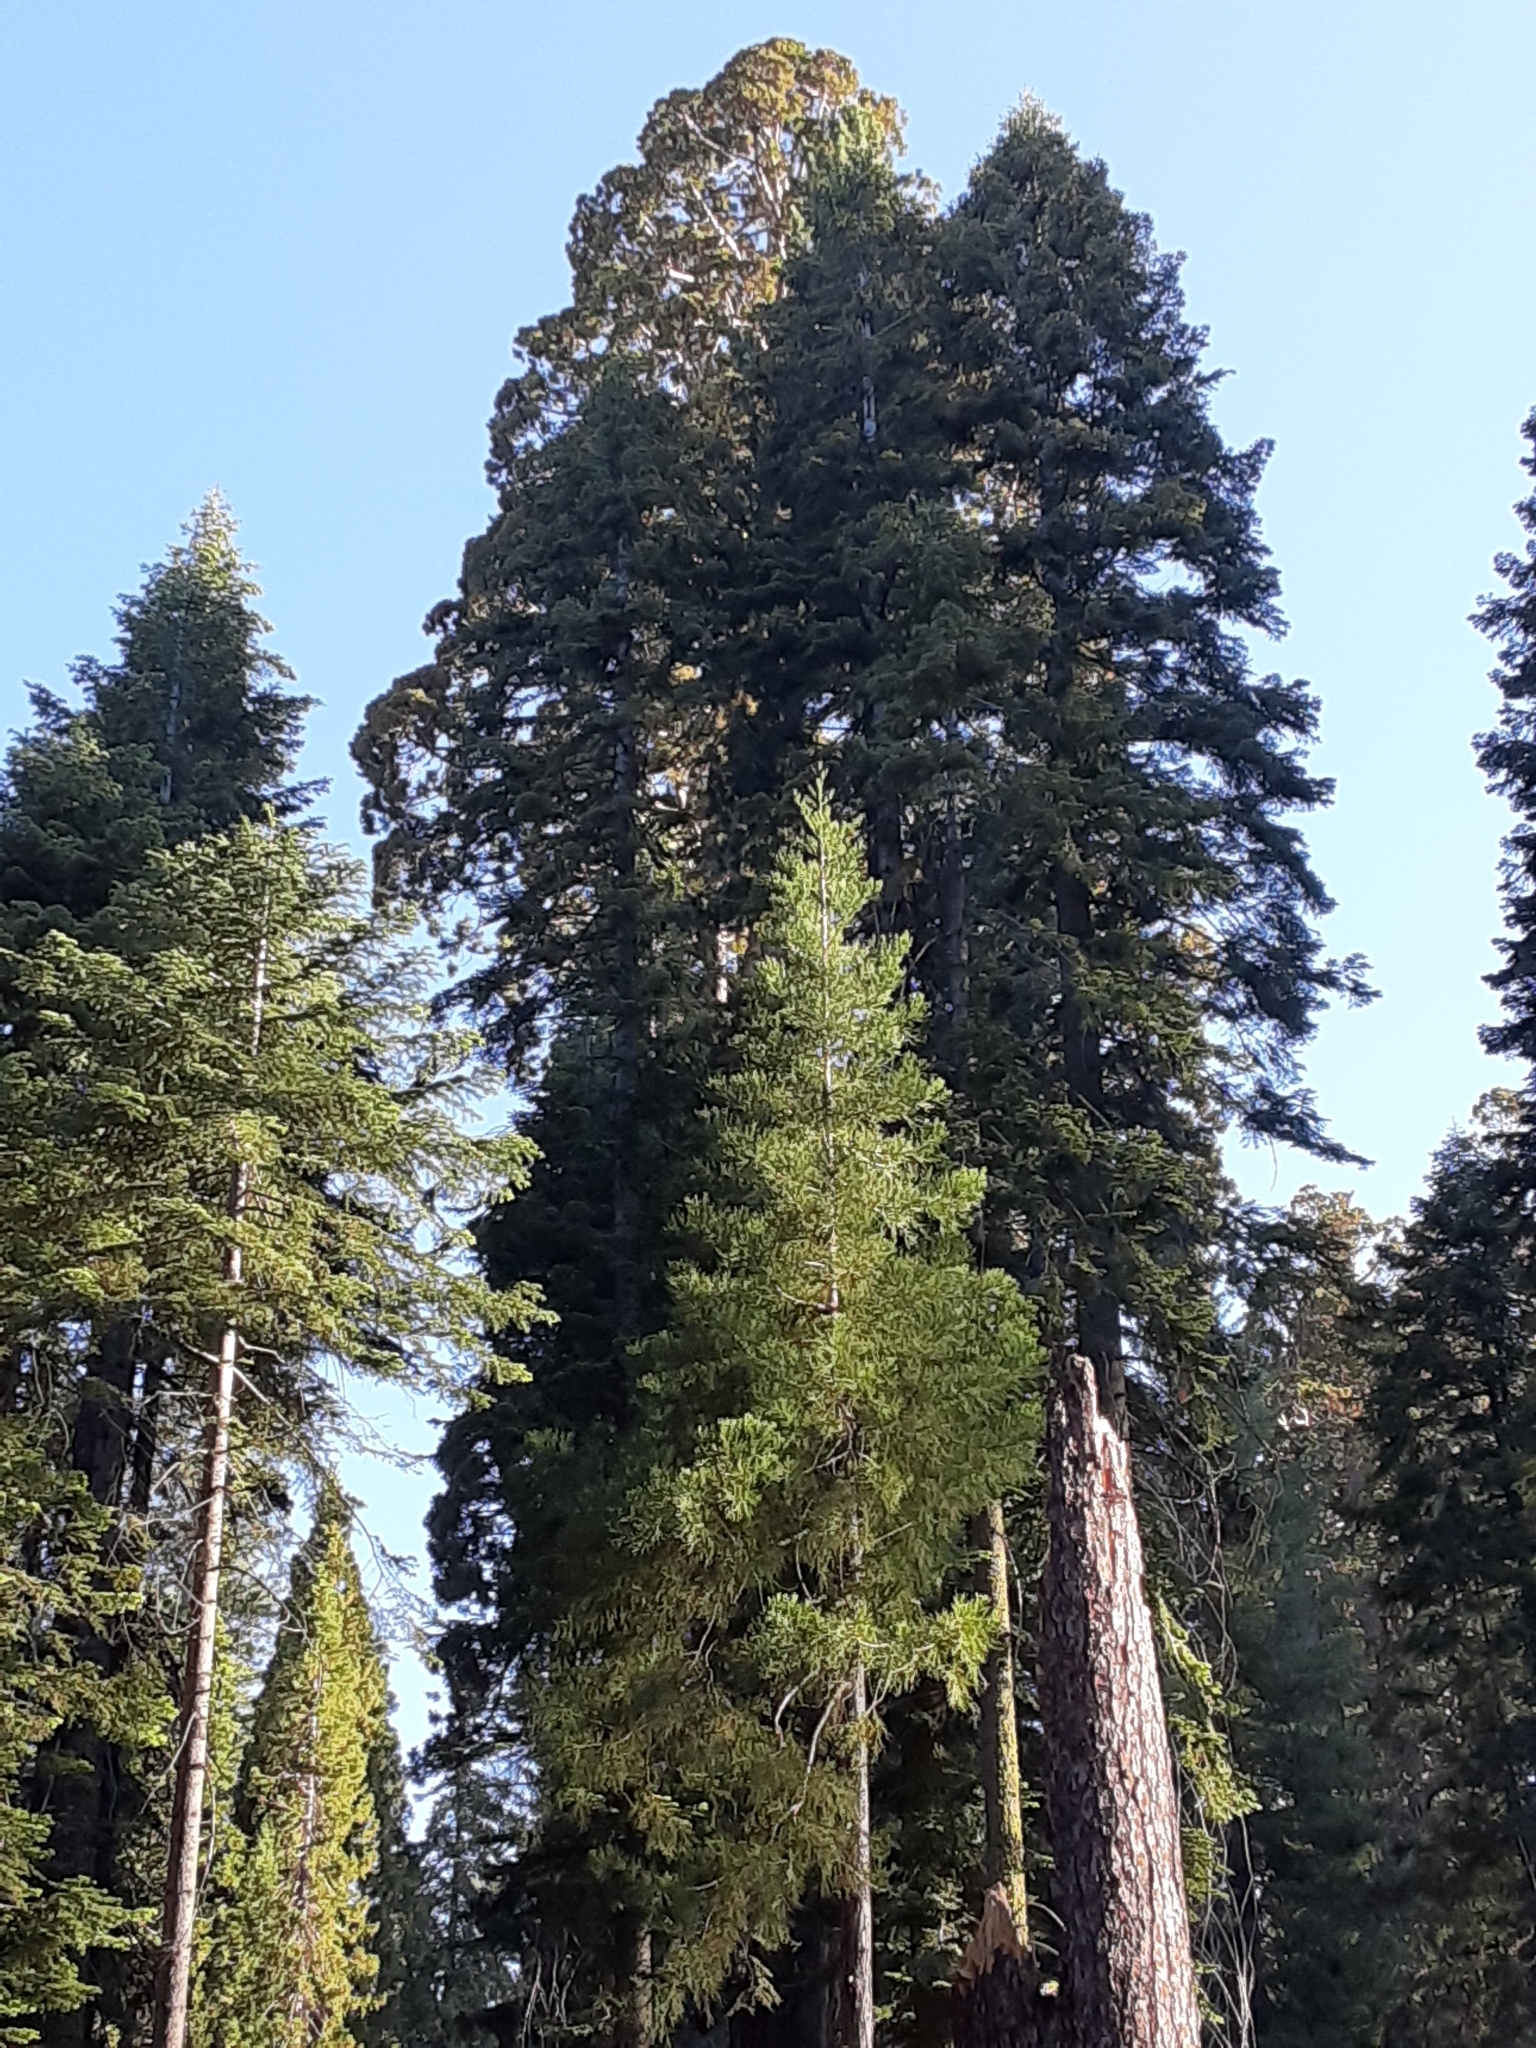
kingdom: Plantae
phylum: Tracheophyta
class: Pinopsida
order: Pinales
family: Cupressaceae
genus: Sequoiadendron
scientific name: Sequoiadendron giganteum
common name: Wellingtonia
